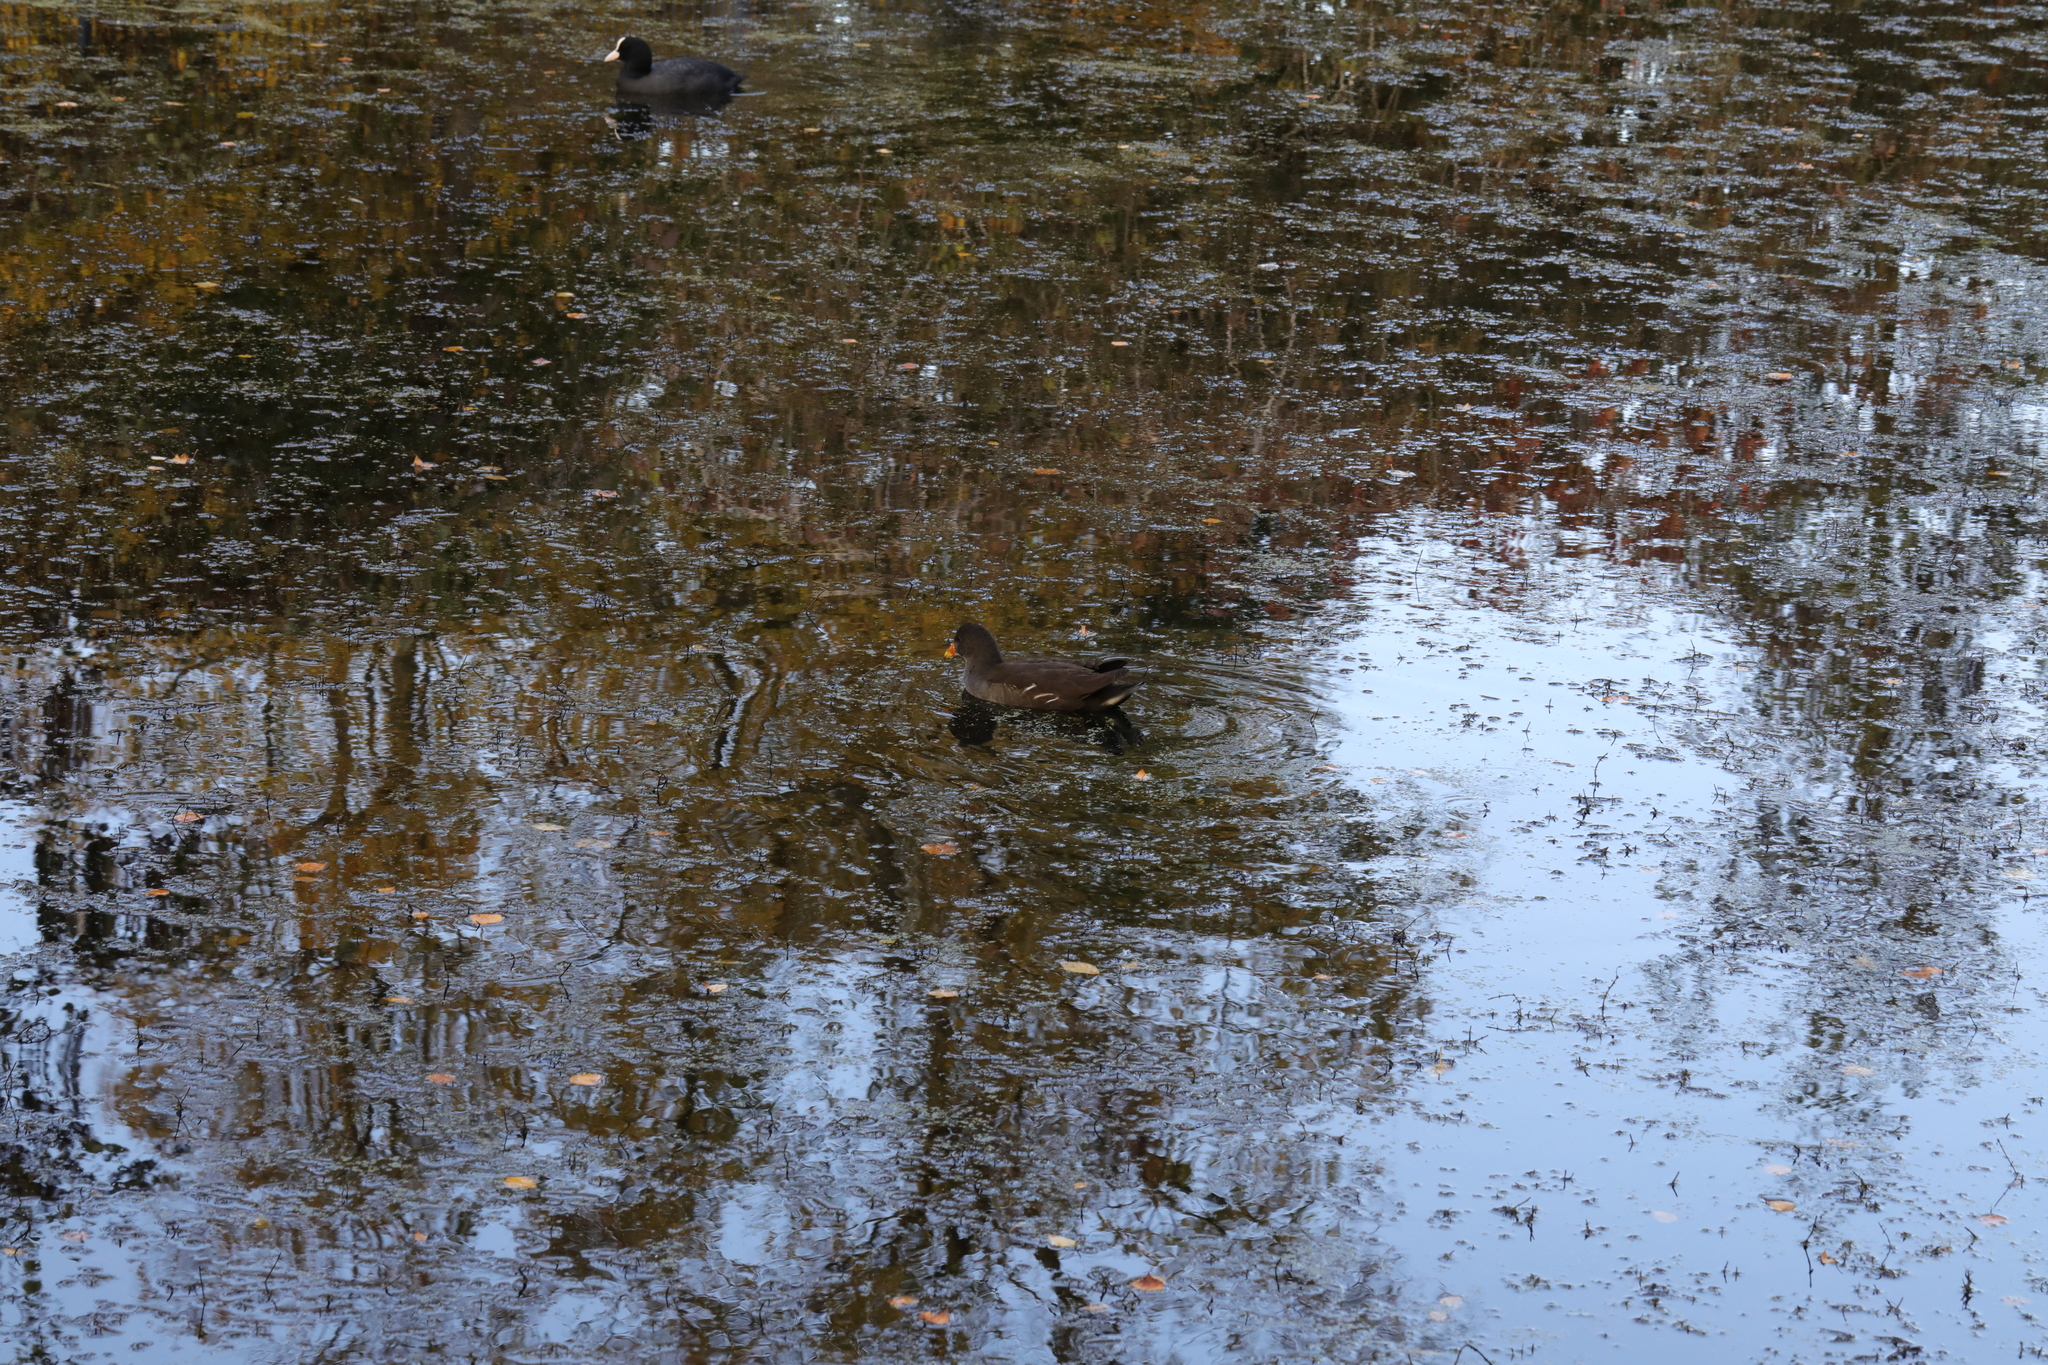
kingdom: Animalia
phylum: Chordata
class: Aves
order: Gruiformes
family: Rallidae
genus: Gallinula
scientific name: Gallinula chloropus
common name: Common moorhen
